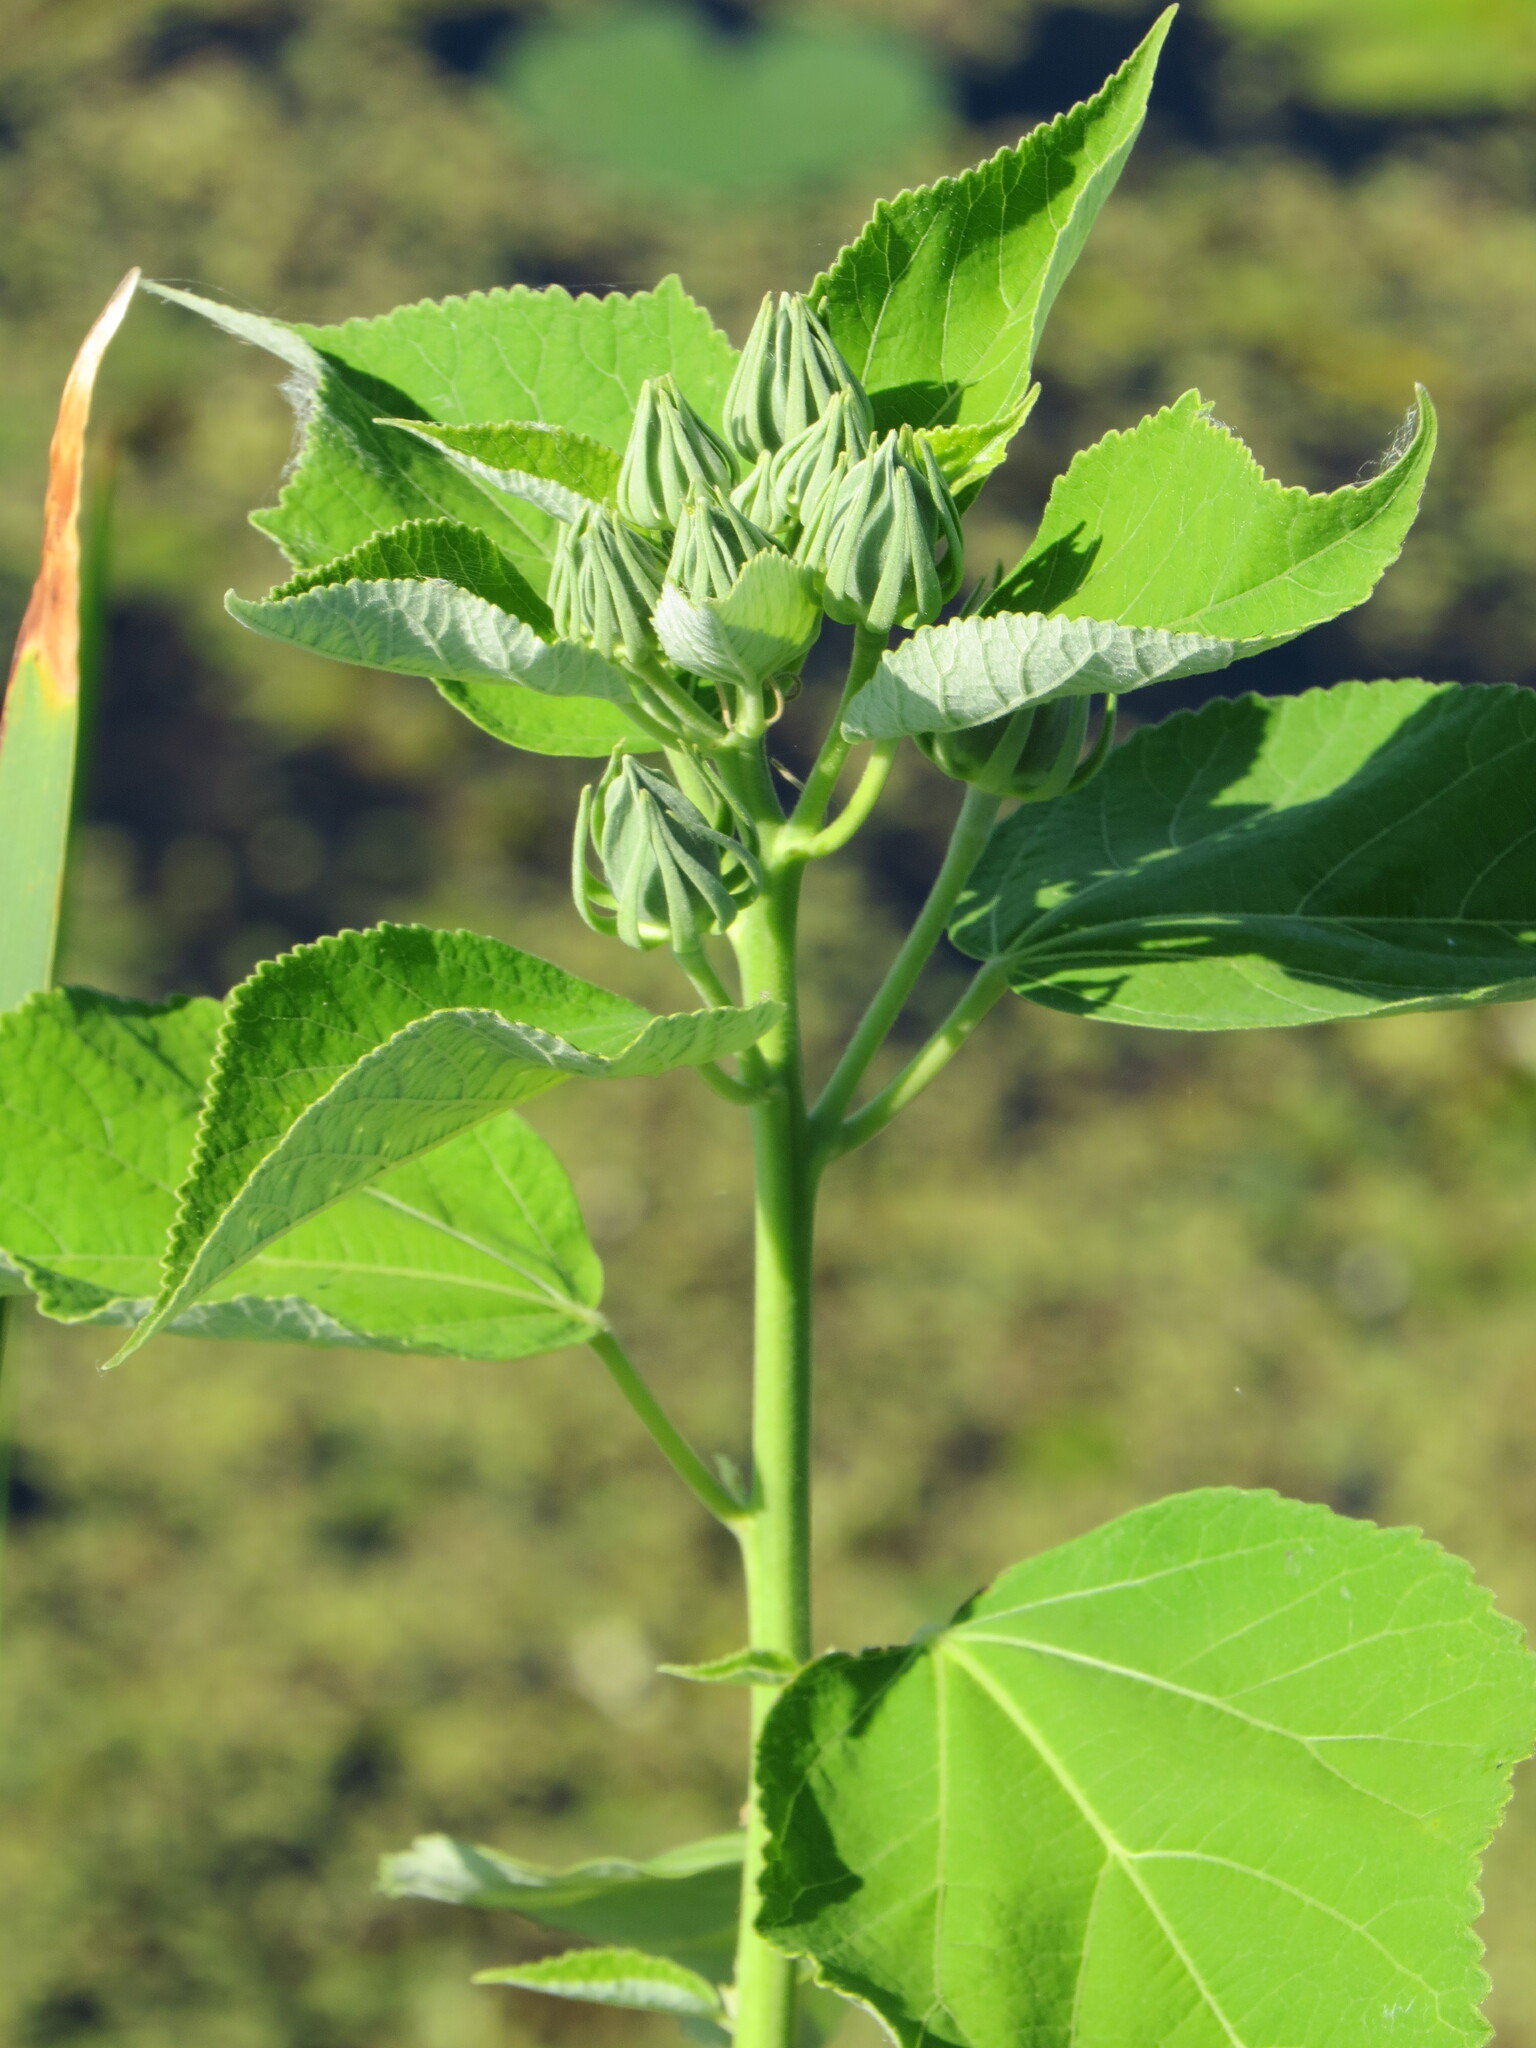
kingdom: Plantae
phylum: Tracheophyta
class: Magnoliopsida
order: Malvales
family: Malvaceae
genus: Hibiscus
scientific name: Hibiscus moscheutos
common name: Common rose-mallow
